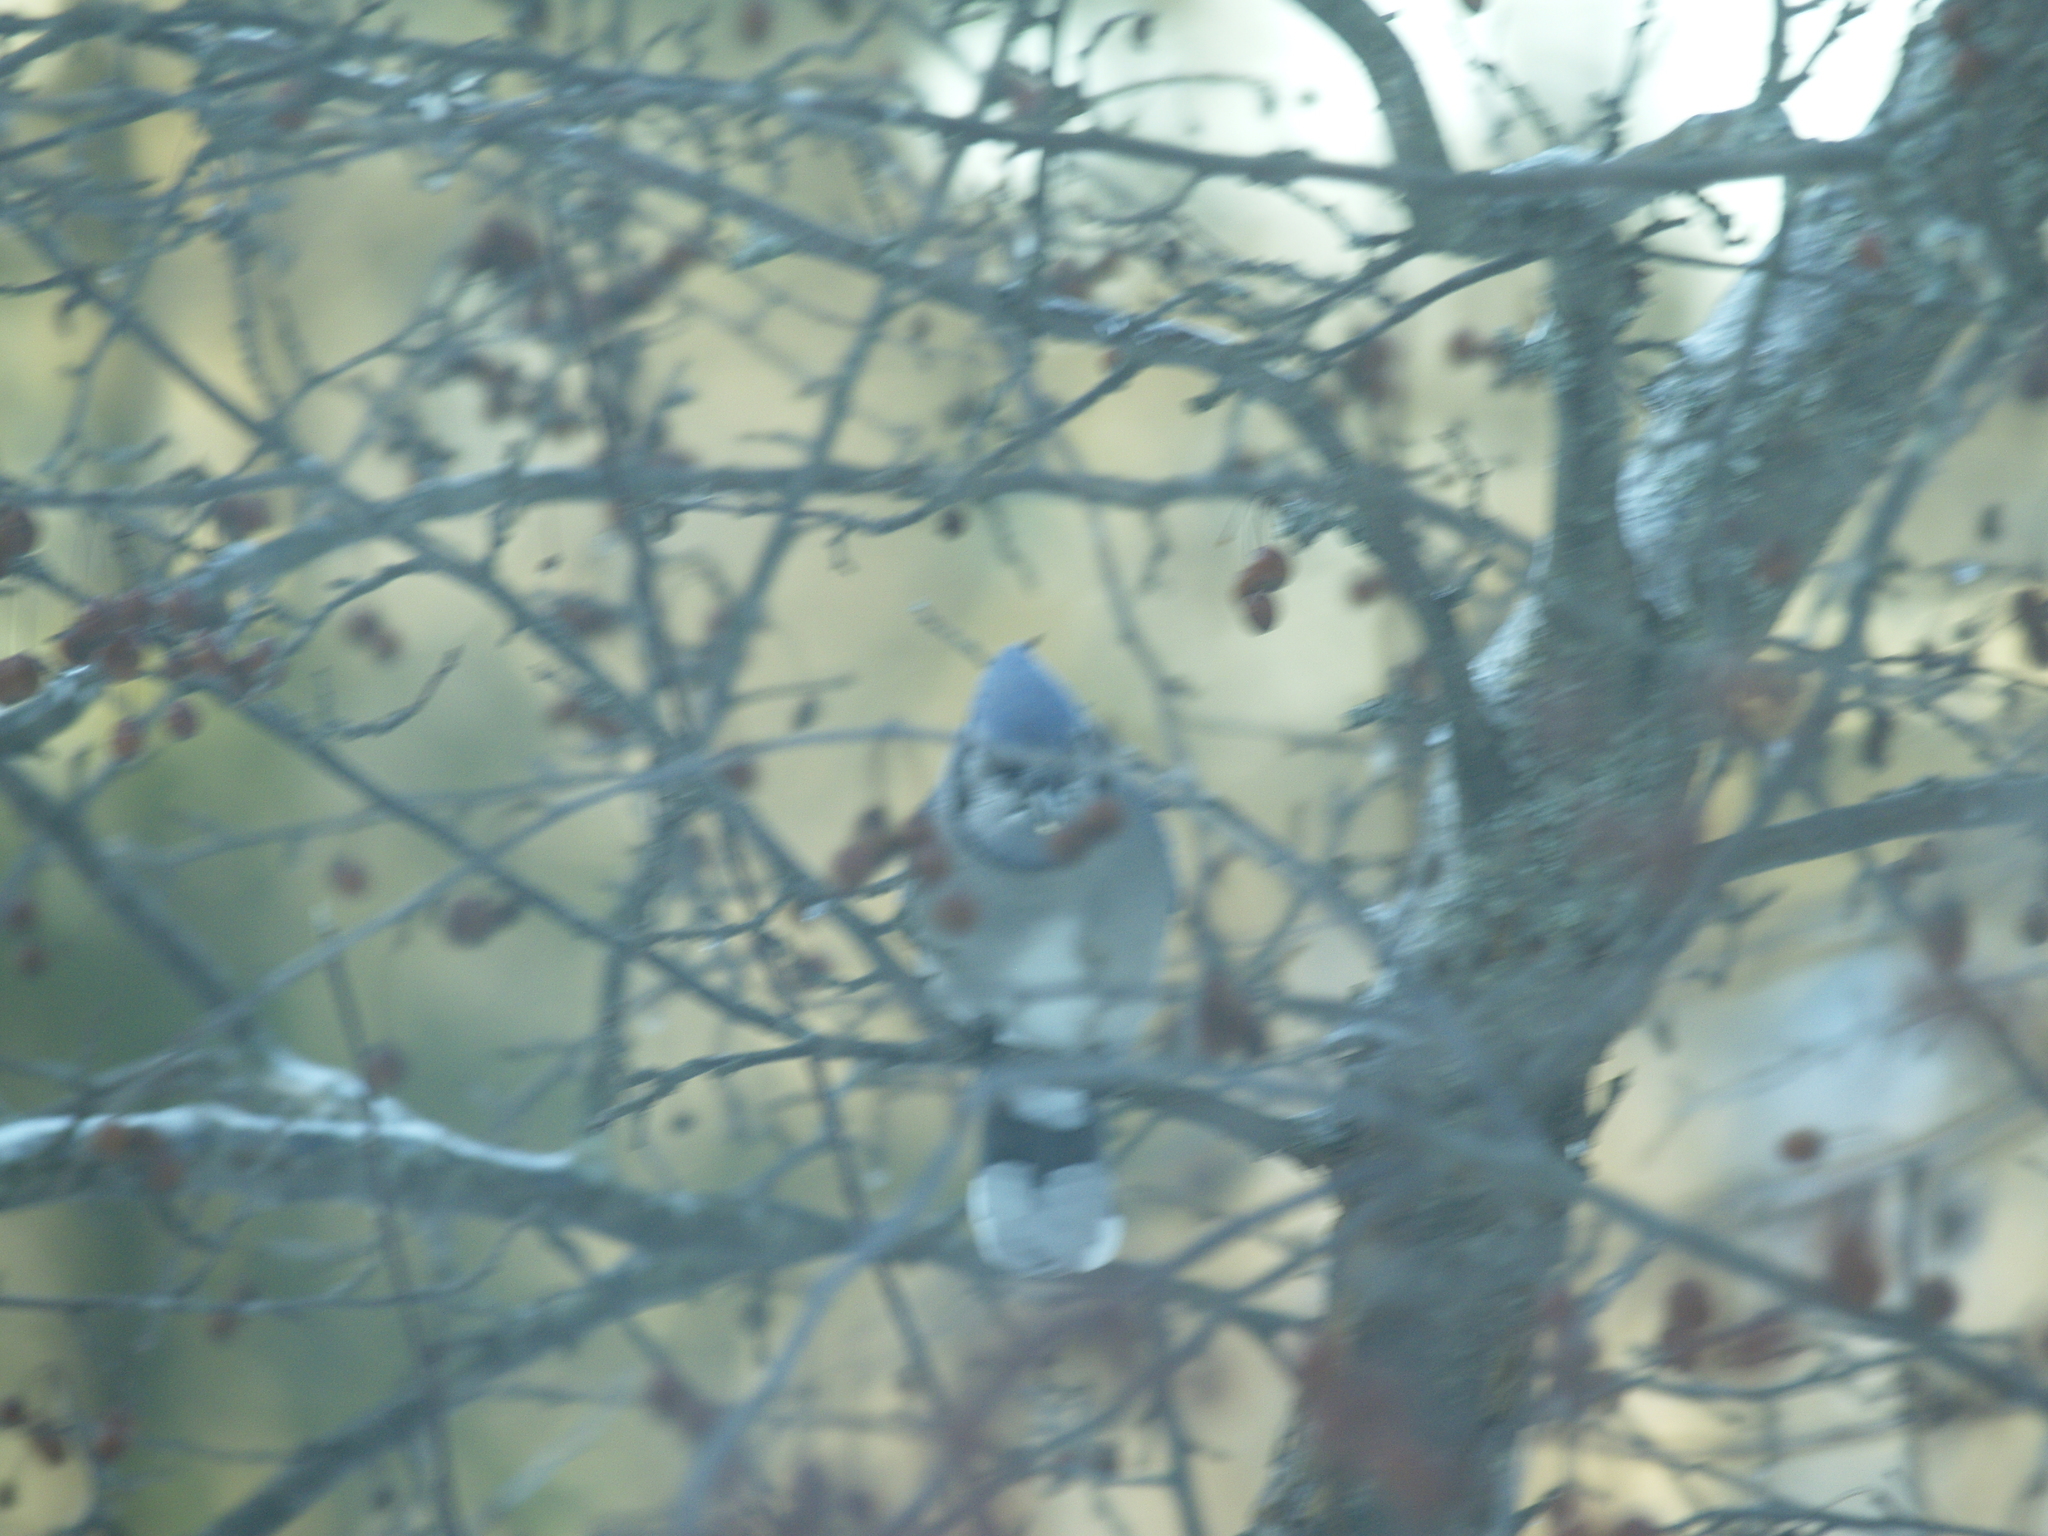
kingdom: Animalia
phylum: Chordata
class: Aves
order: Passeriformes
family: Corvidae
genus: Cyanocitta
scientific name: Cyanocitta cristata
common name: Blue jay
